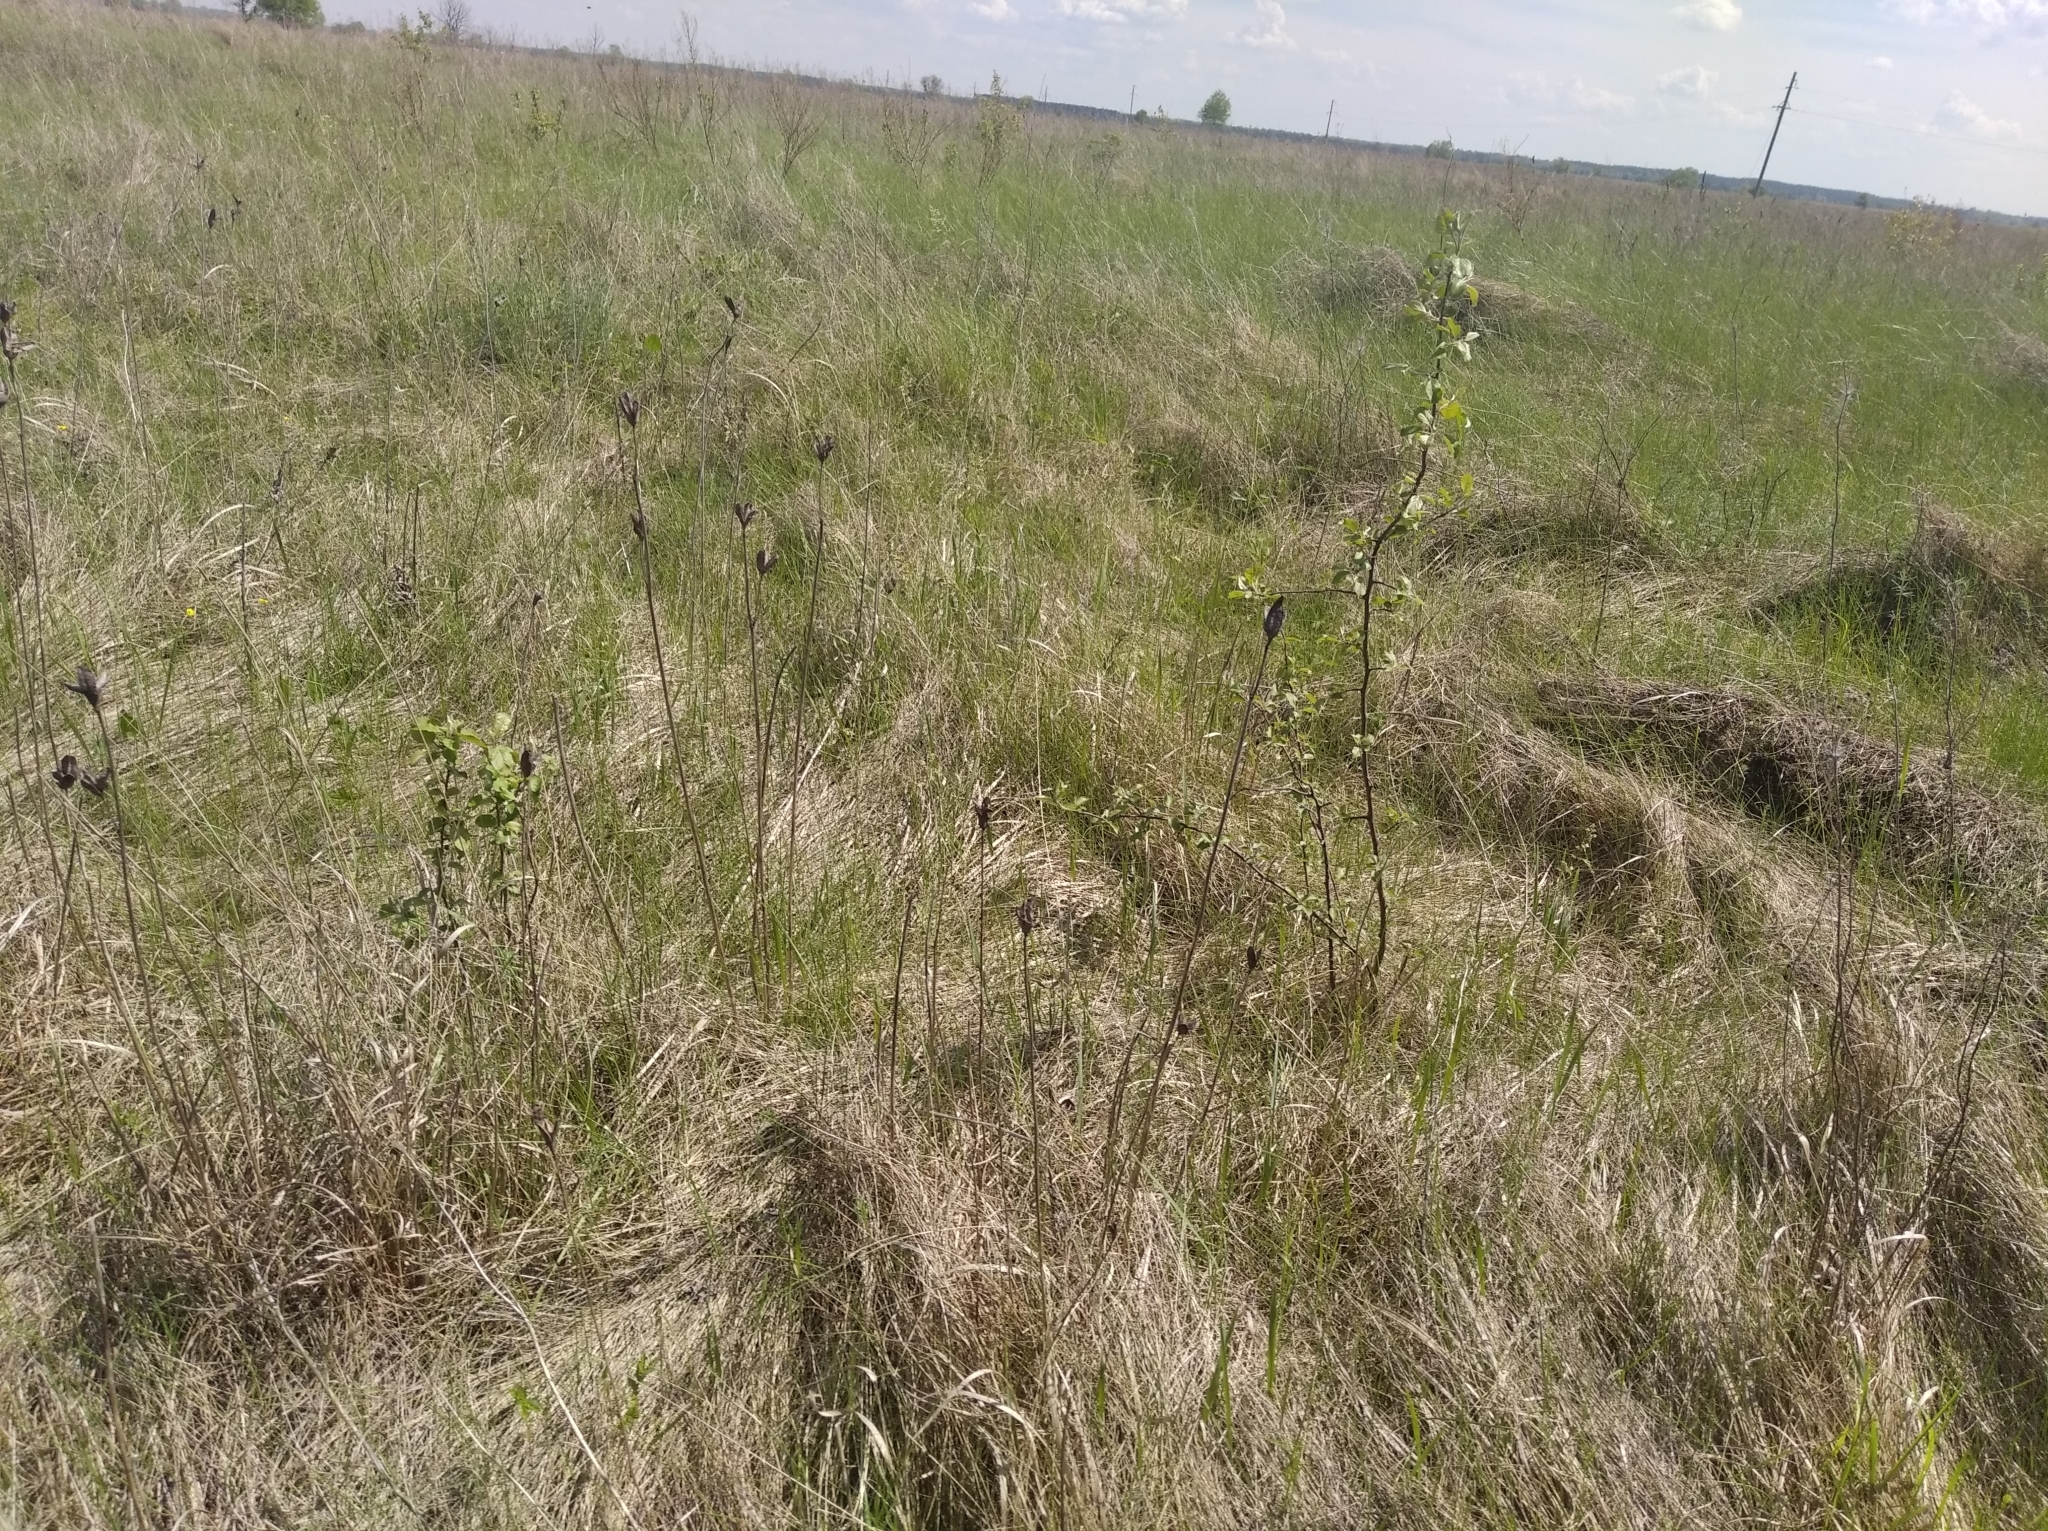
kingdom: Plantae
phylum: Tracheophyta
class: Liliopsida
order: Asparagales
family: Iridaceae
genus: Iris
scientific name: Iris sibirica
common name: Siberian iris
